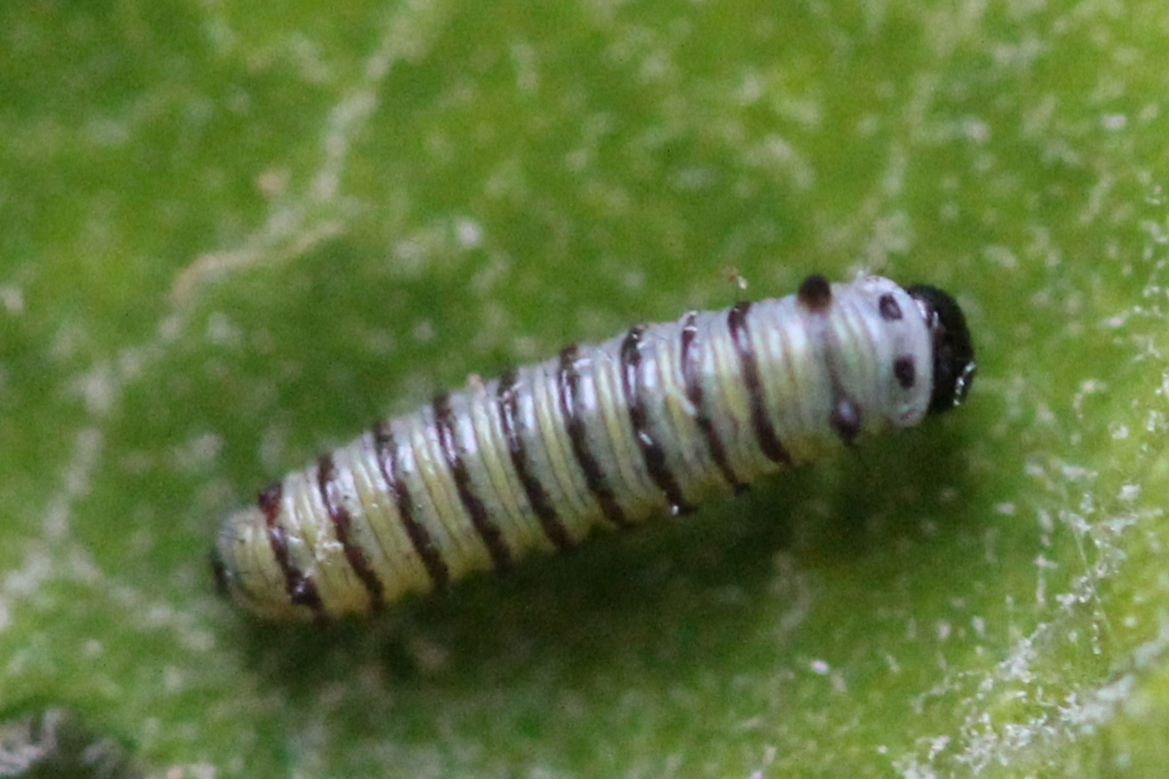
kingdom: Animalia
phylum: Arthropoda
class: Insecta
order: Lepidoptera
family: Nymphalidae
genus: Danaus
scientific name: Danaus plexippus
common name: Monarch
